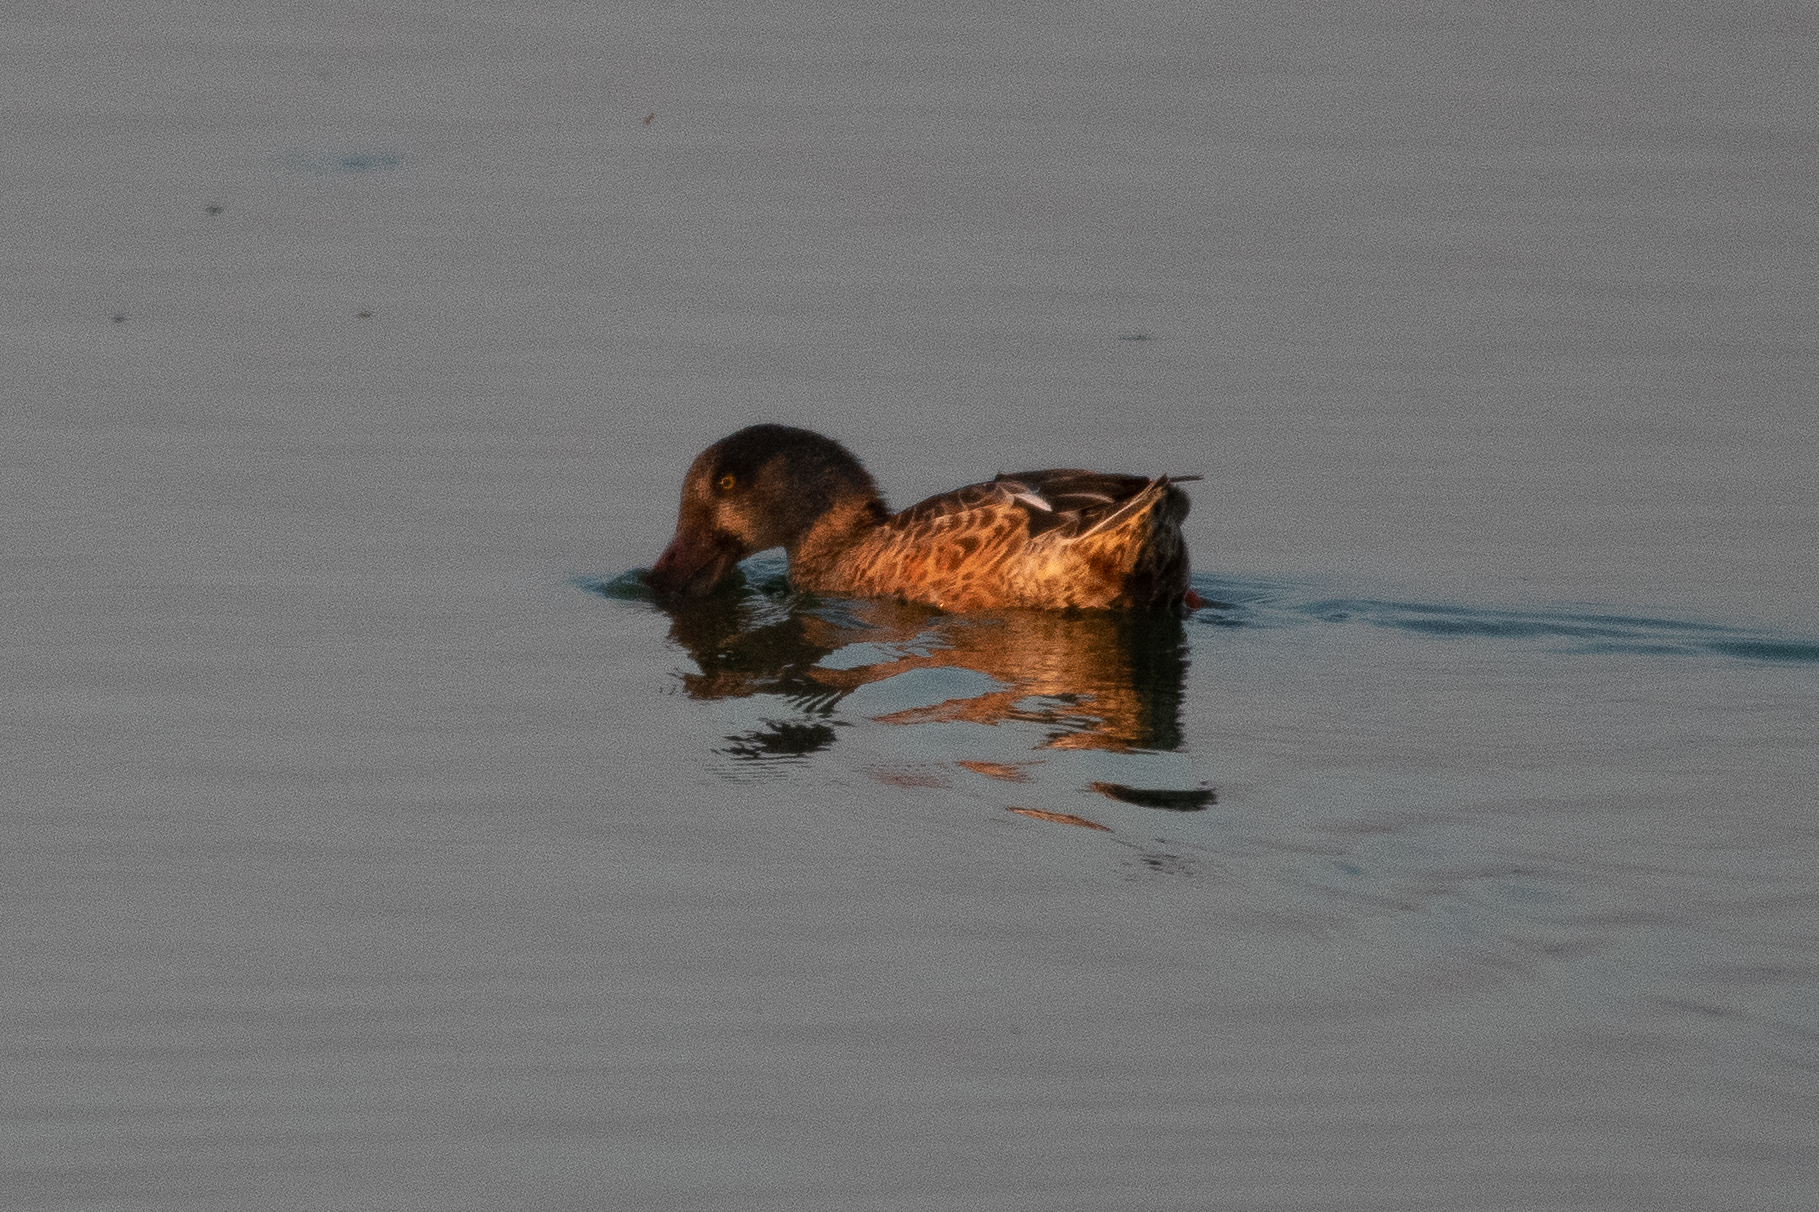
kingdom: Animalia
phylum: Chordata
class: Aves
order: Anseriformes
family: Anatidae
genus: Spatula
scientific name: Spatula clypeata
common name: Northern shoveler
